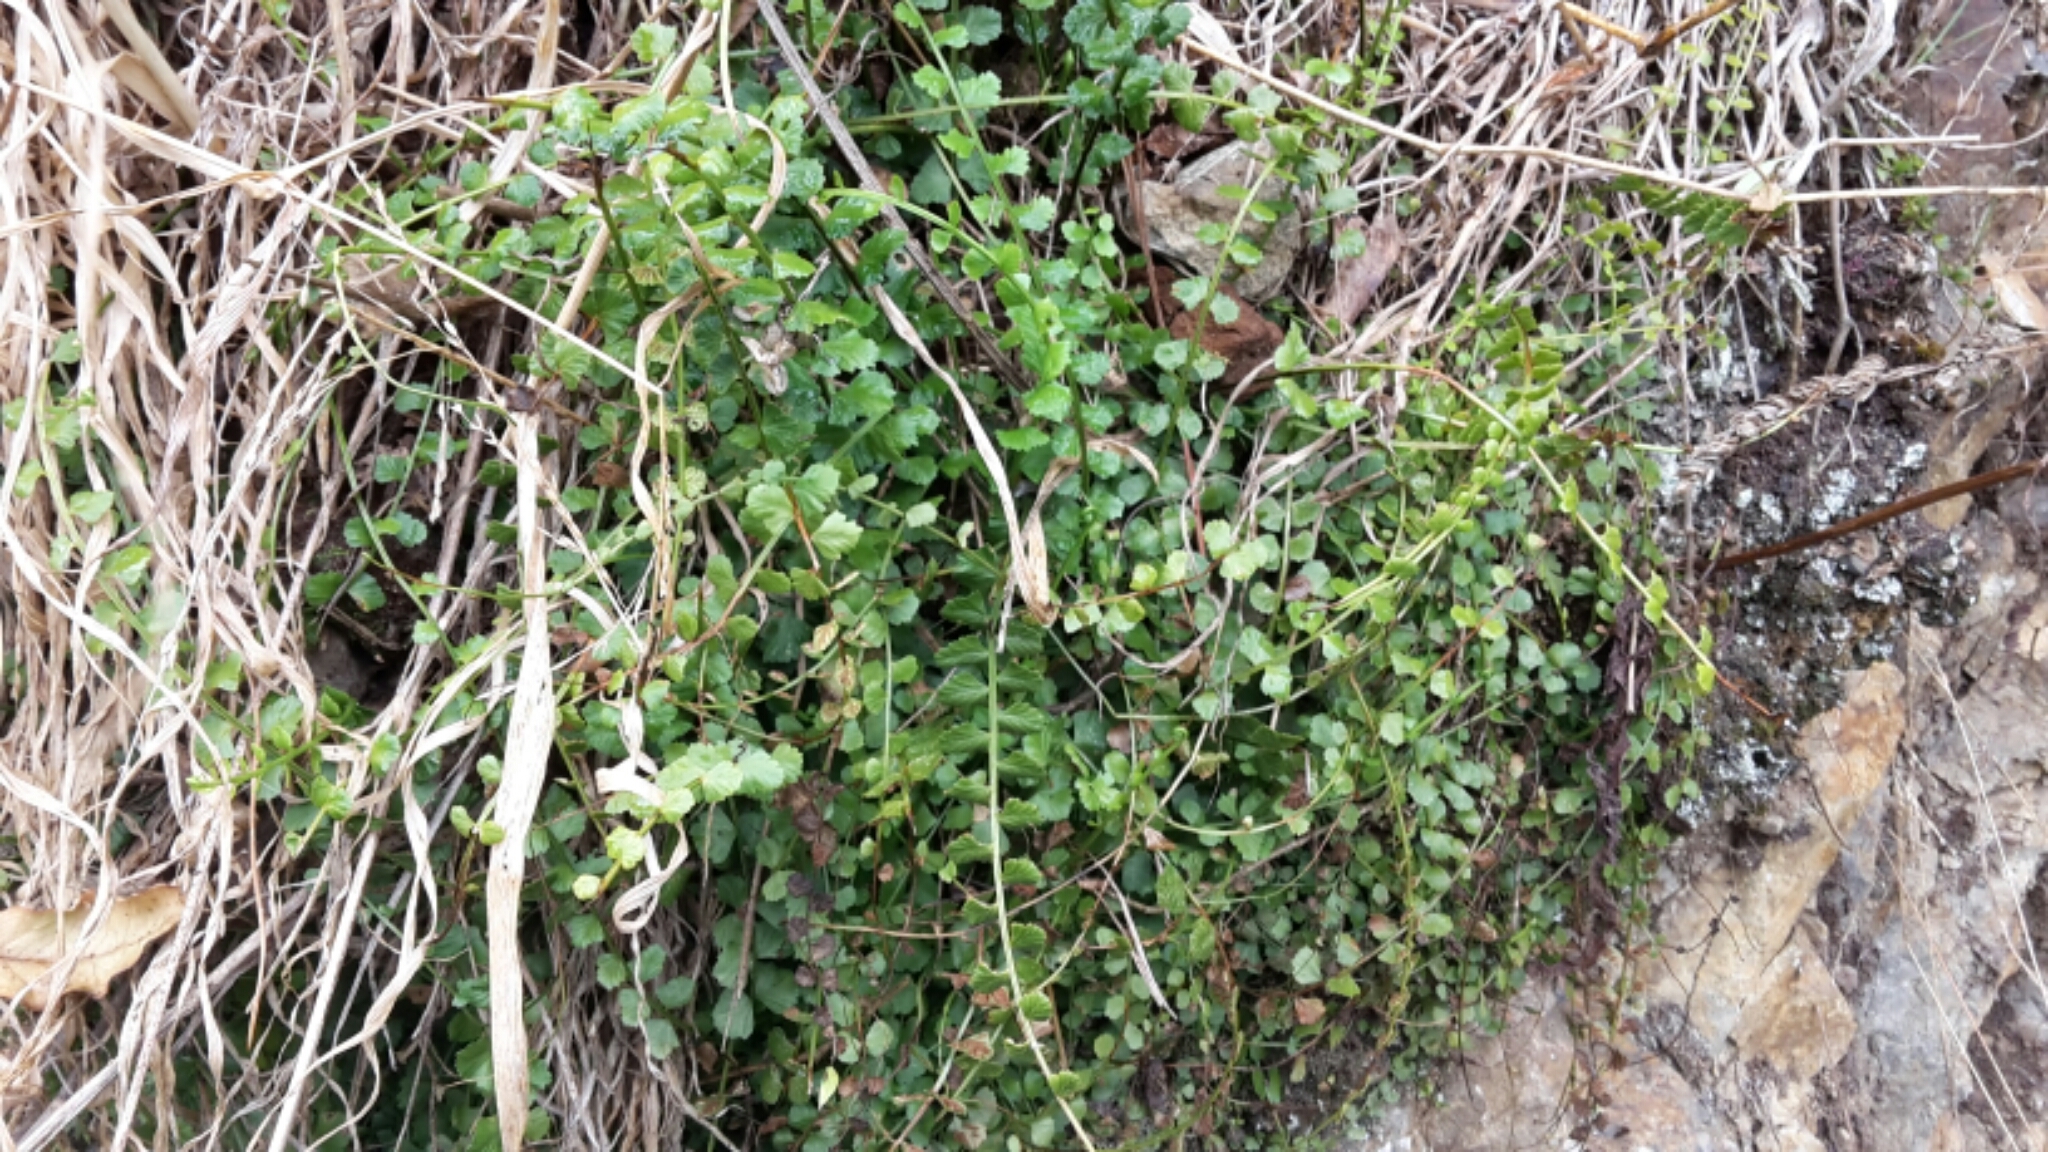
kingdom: Plantae
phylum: Tracheophyta
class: Polypodiopsida
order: Polypodiales
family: Aspleniaceae
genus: Asplenium
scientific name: Asplenium flabellifolium
